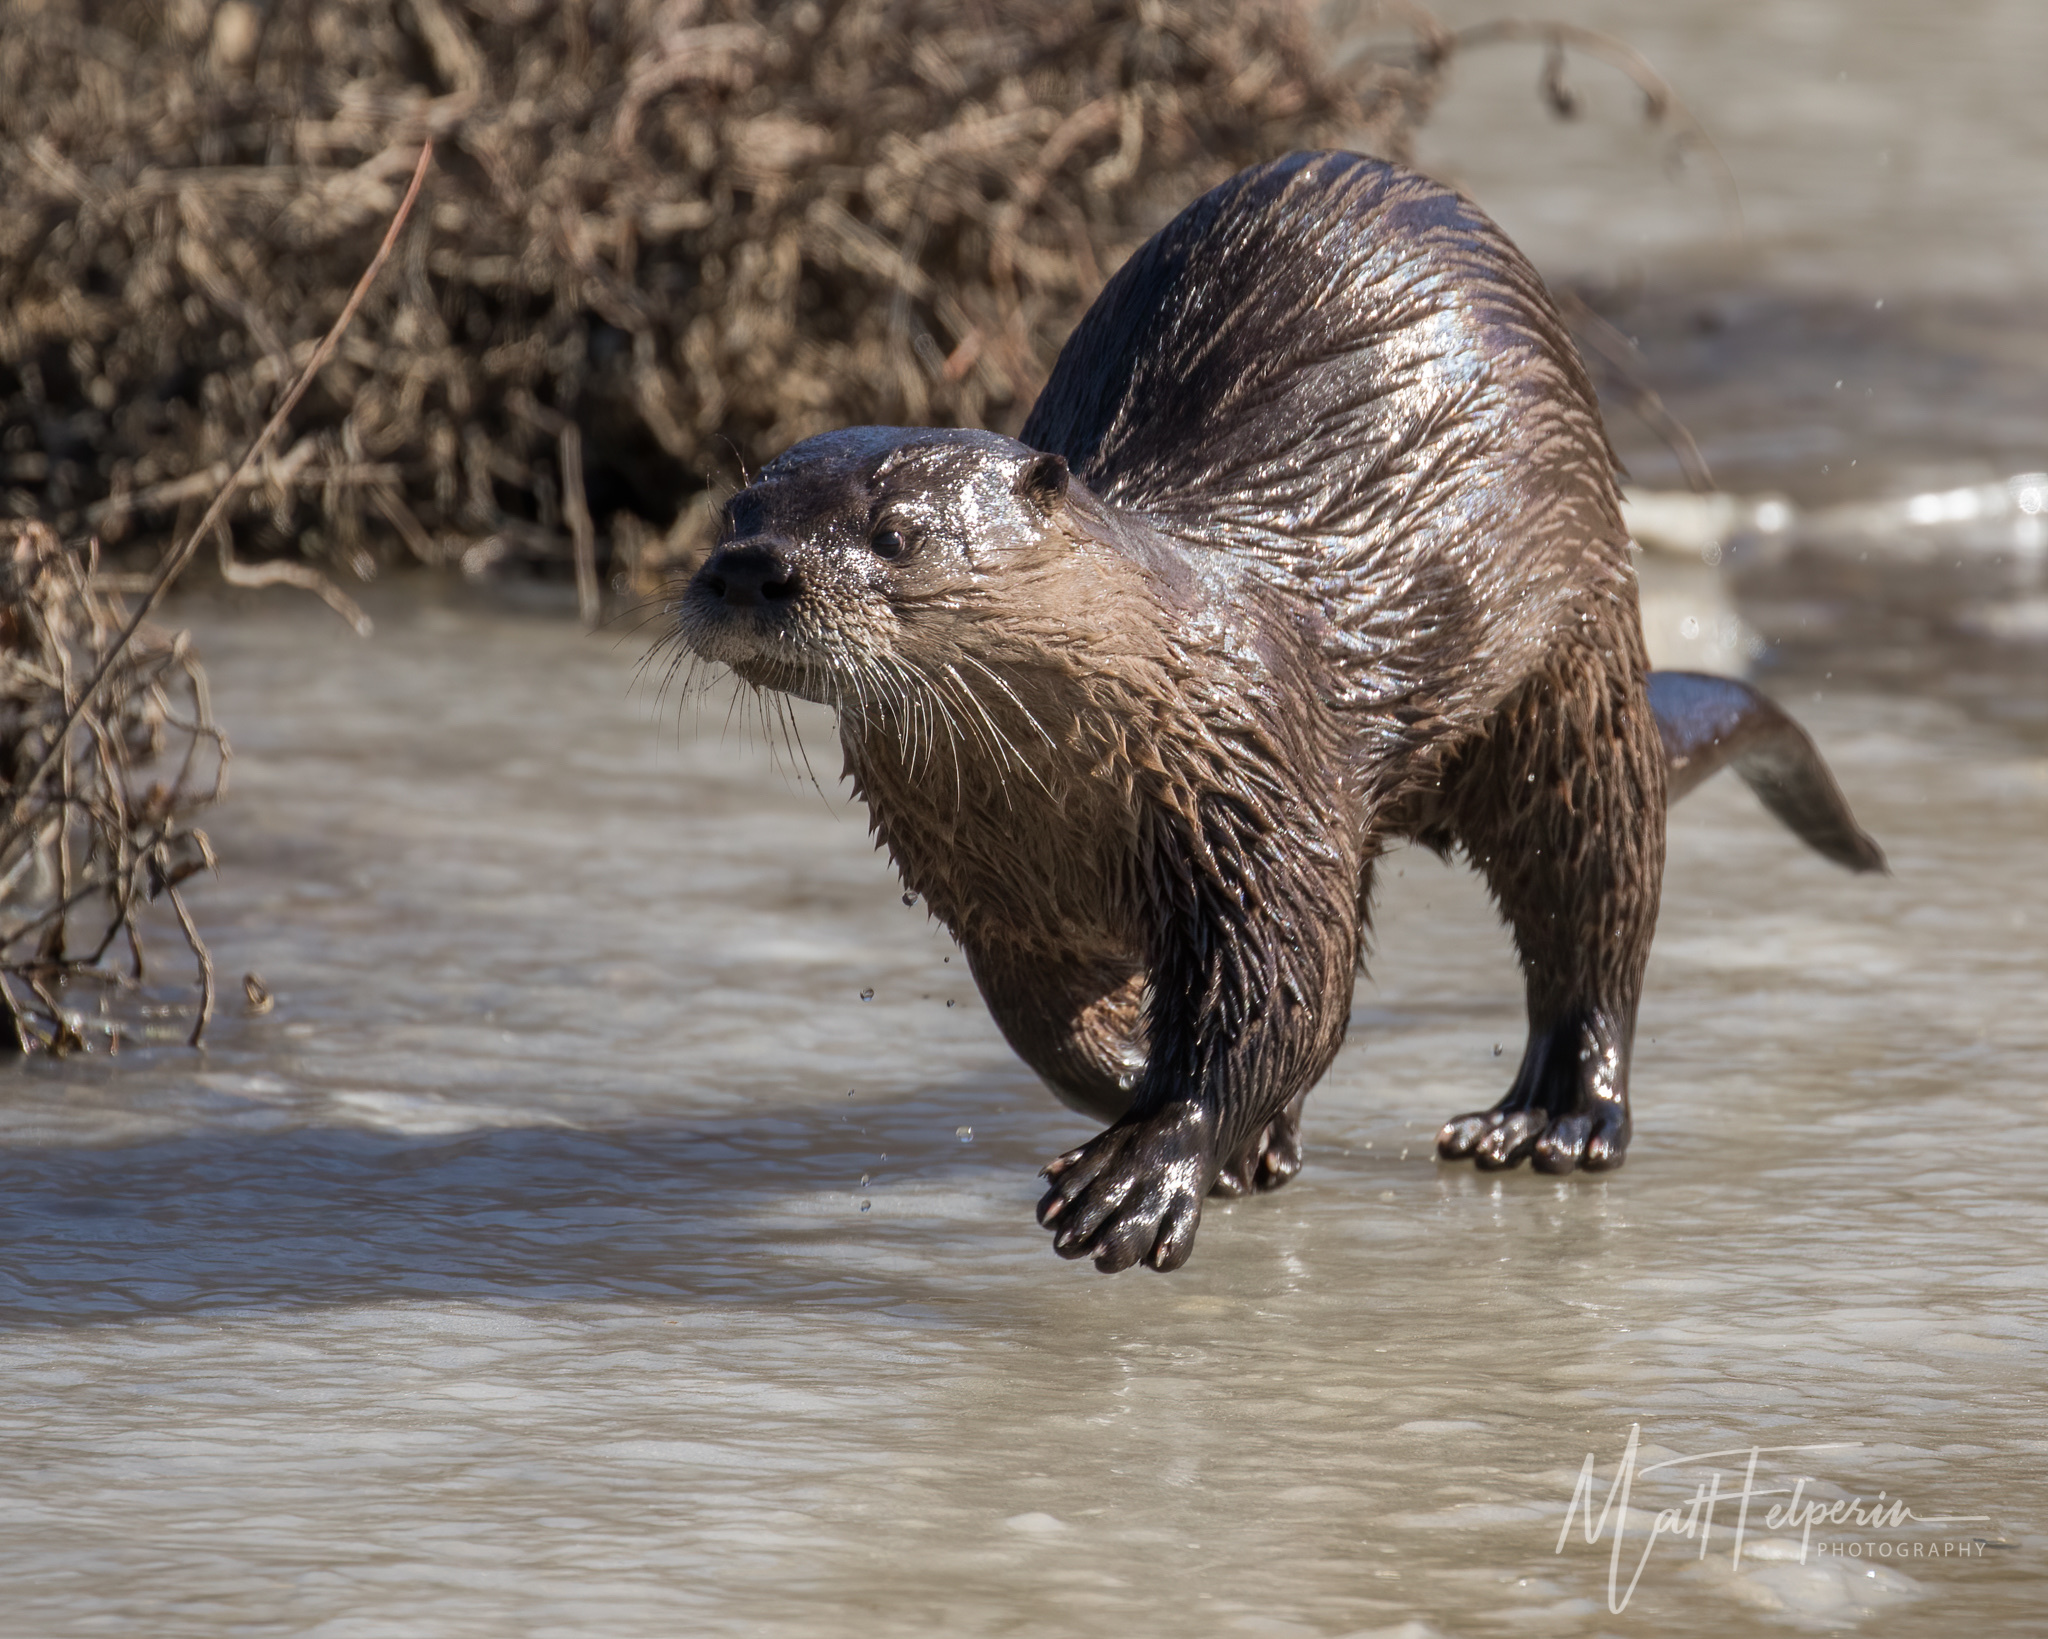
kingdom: Animalia
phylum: Chordata
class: Mammalia
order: Carnivora
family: Mustelidae
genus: Lontra
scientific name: Lontra canadensis
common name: North american river otter
